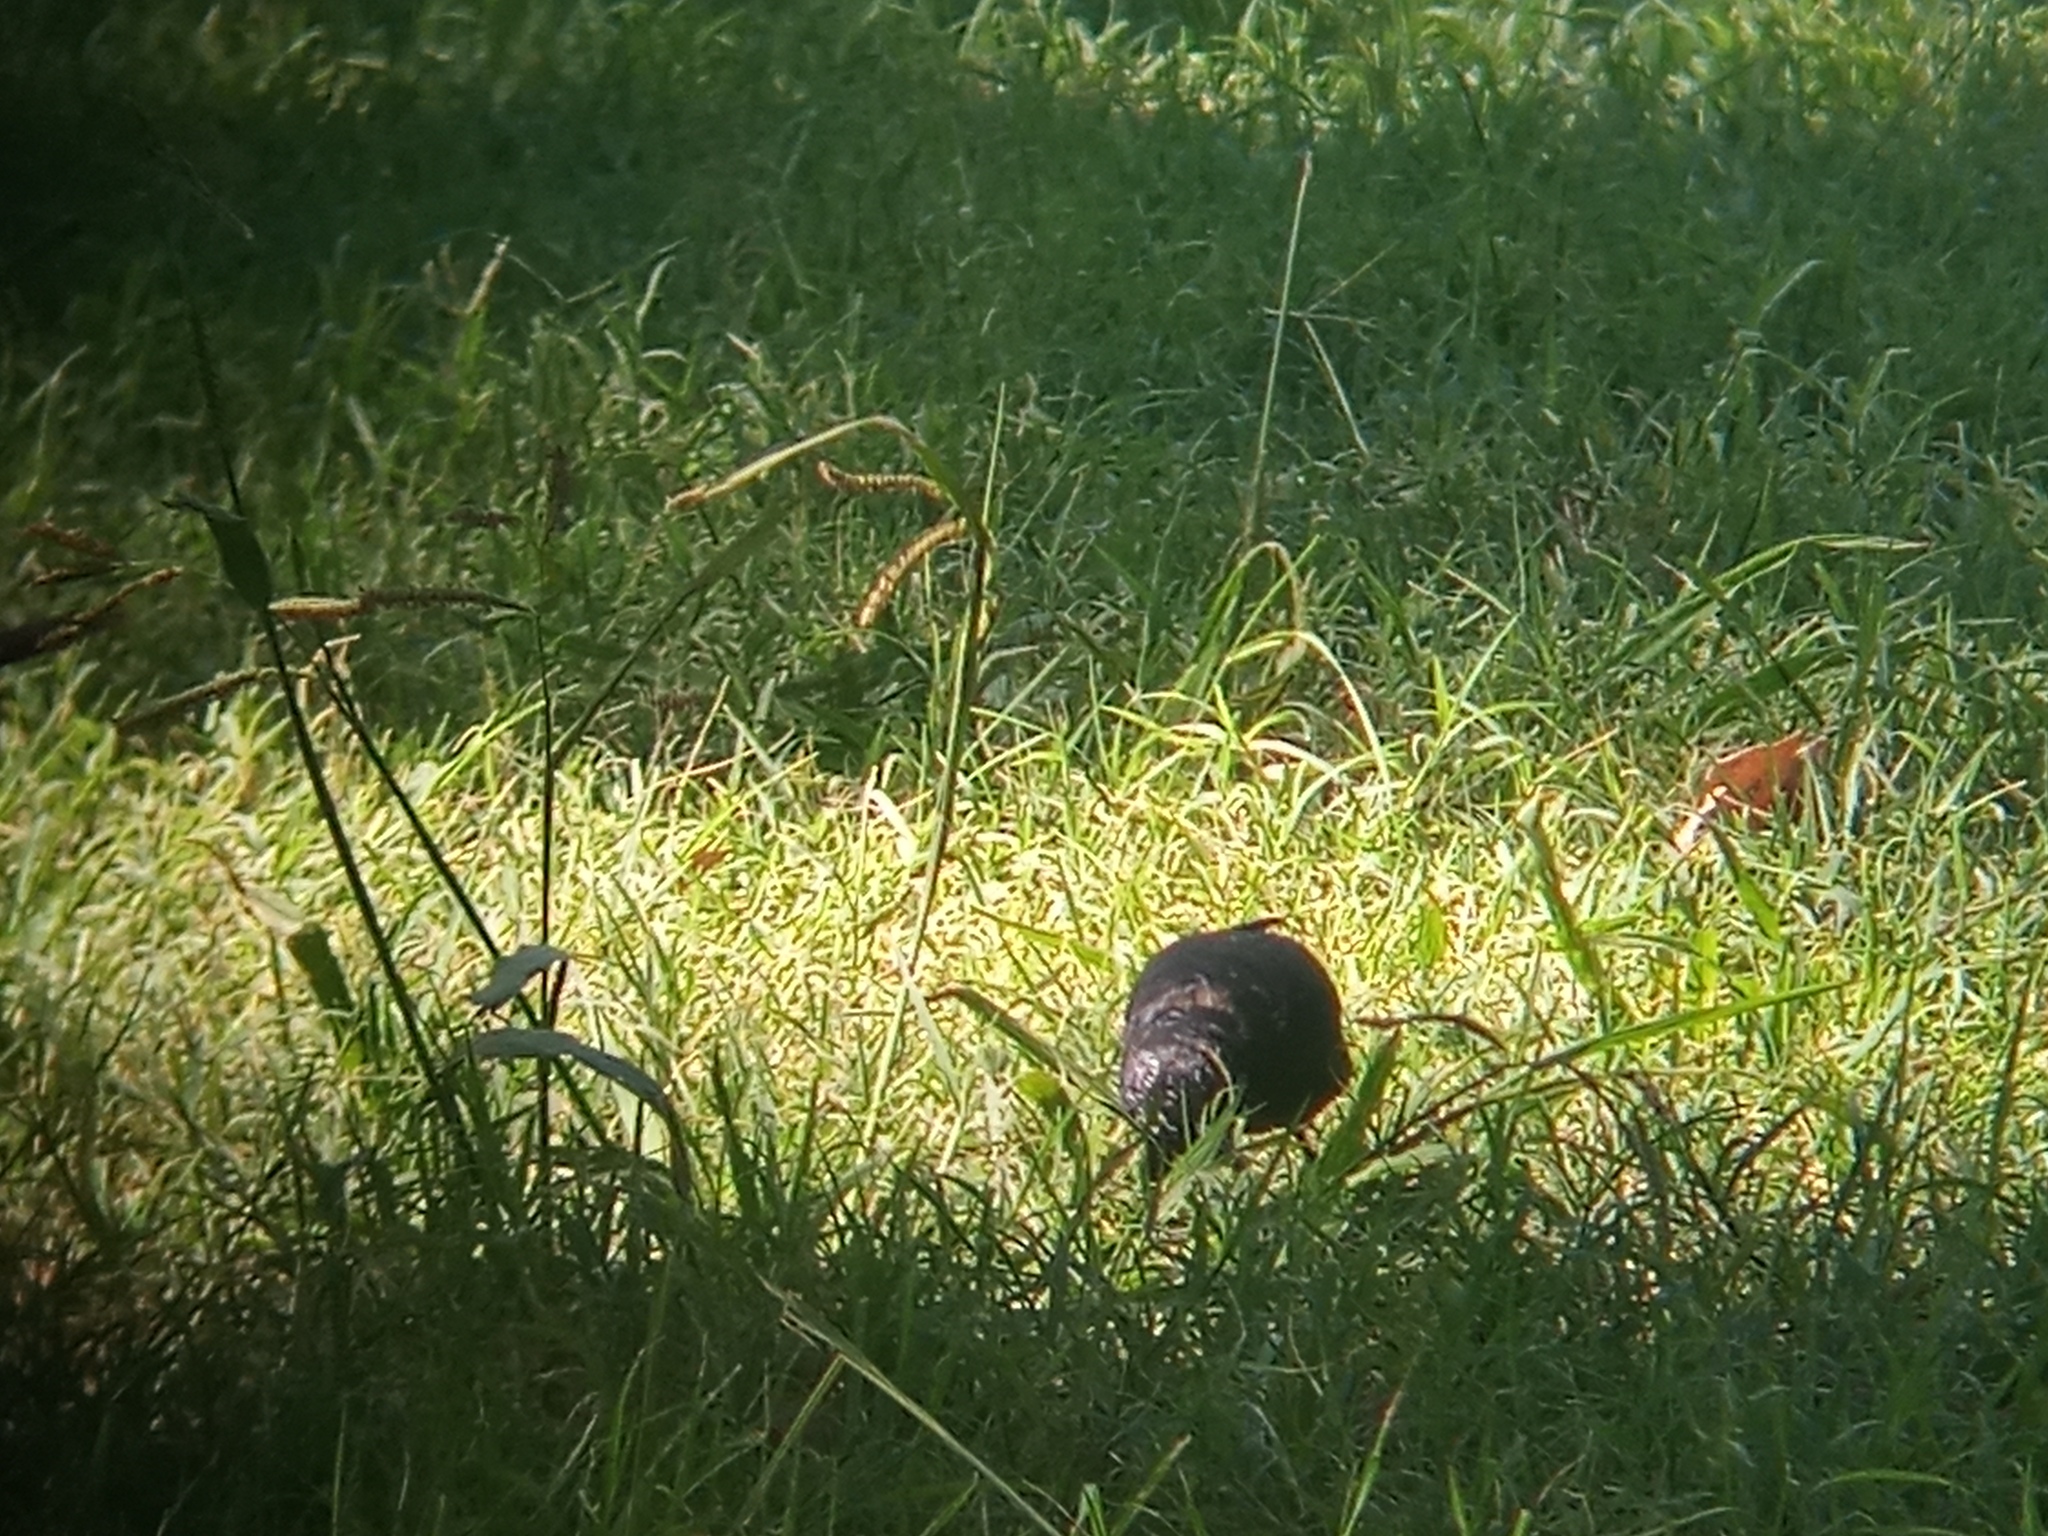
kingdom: Animalia
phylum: Chordata
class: Aves
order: Passeriformes
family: Sturnidae
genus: Sturnus
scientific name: Sturnus vulgaris
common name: Common starling
